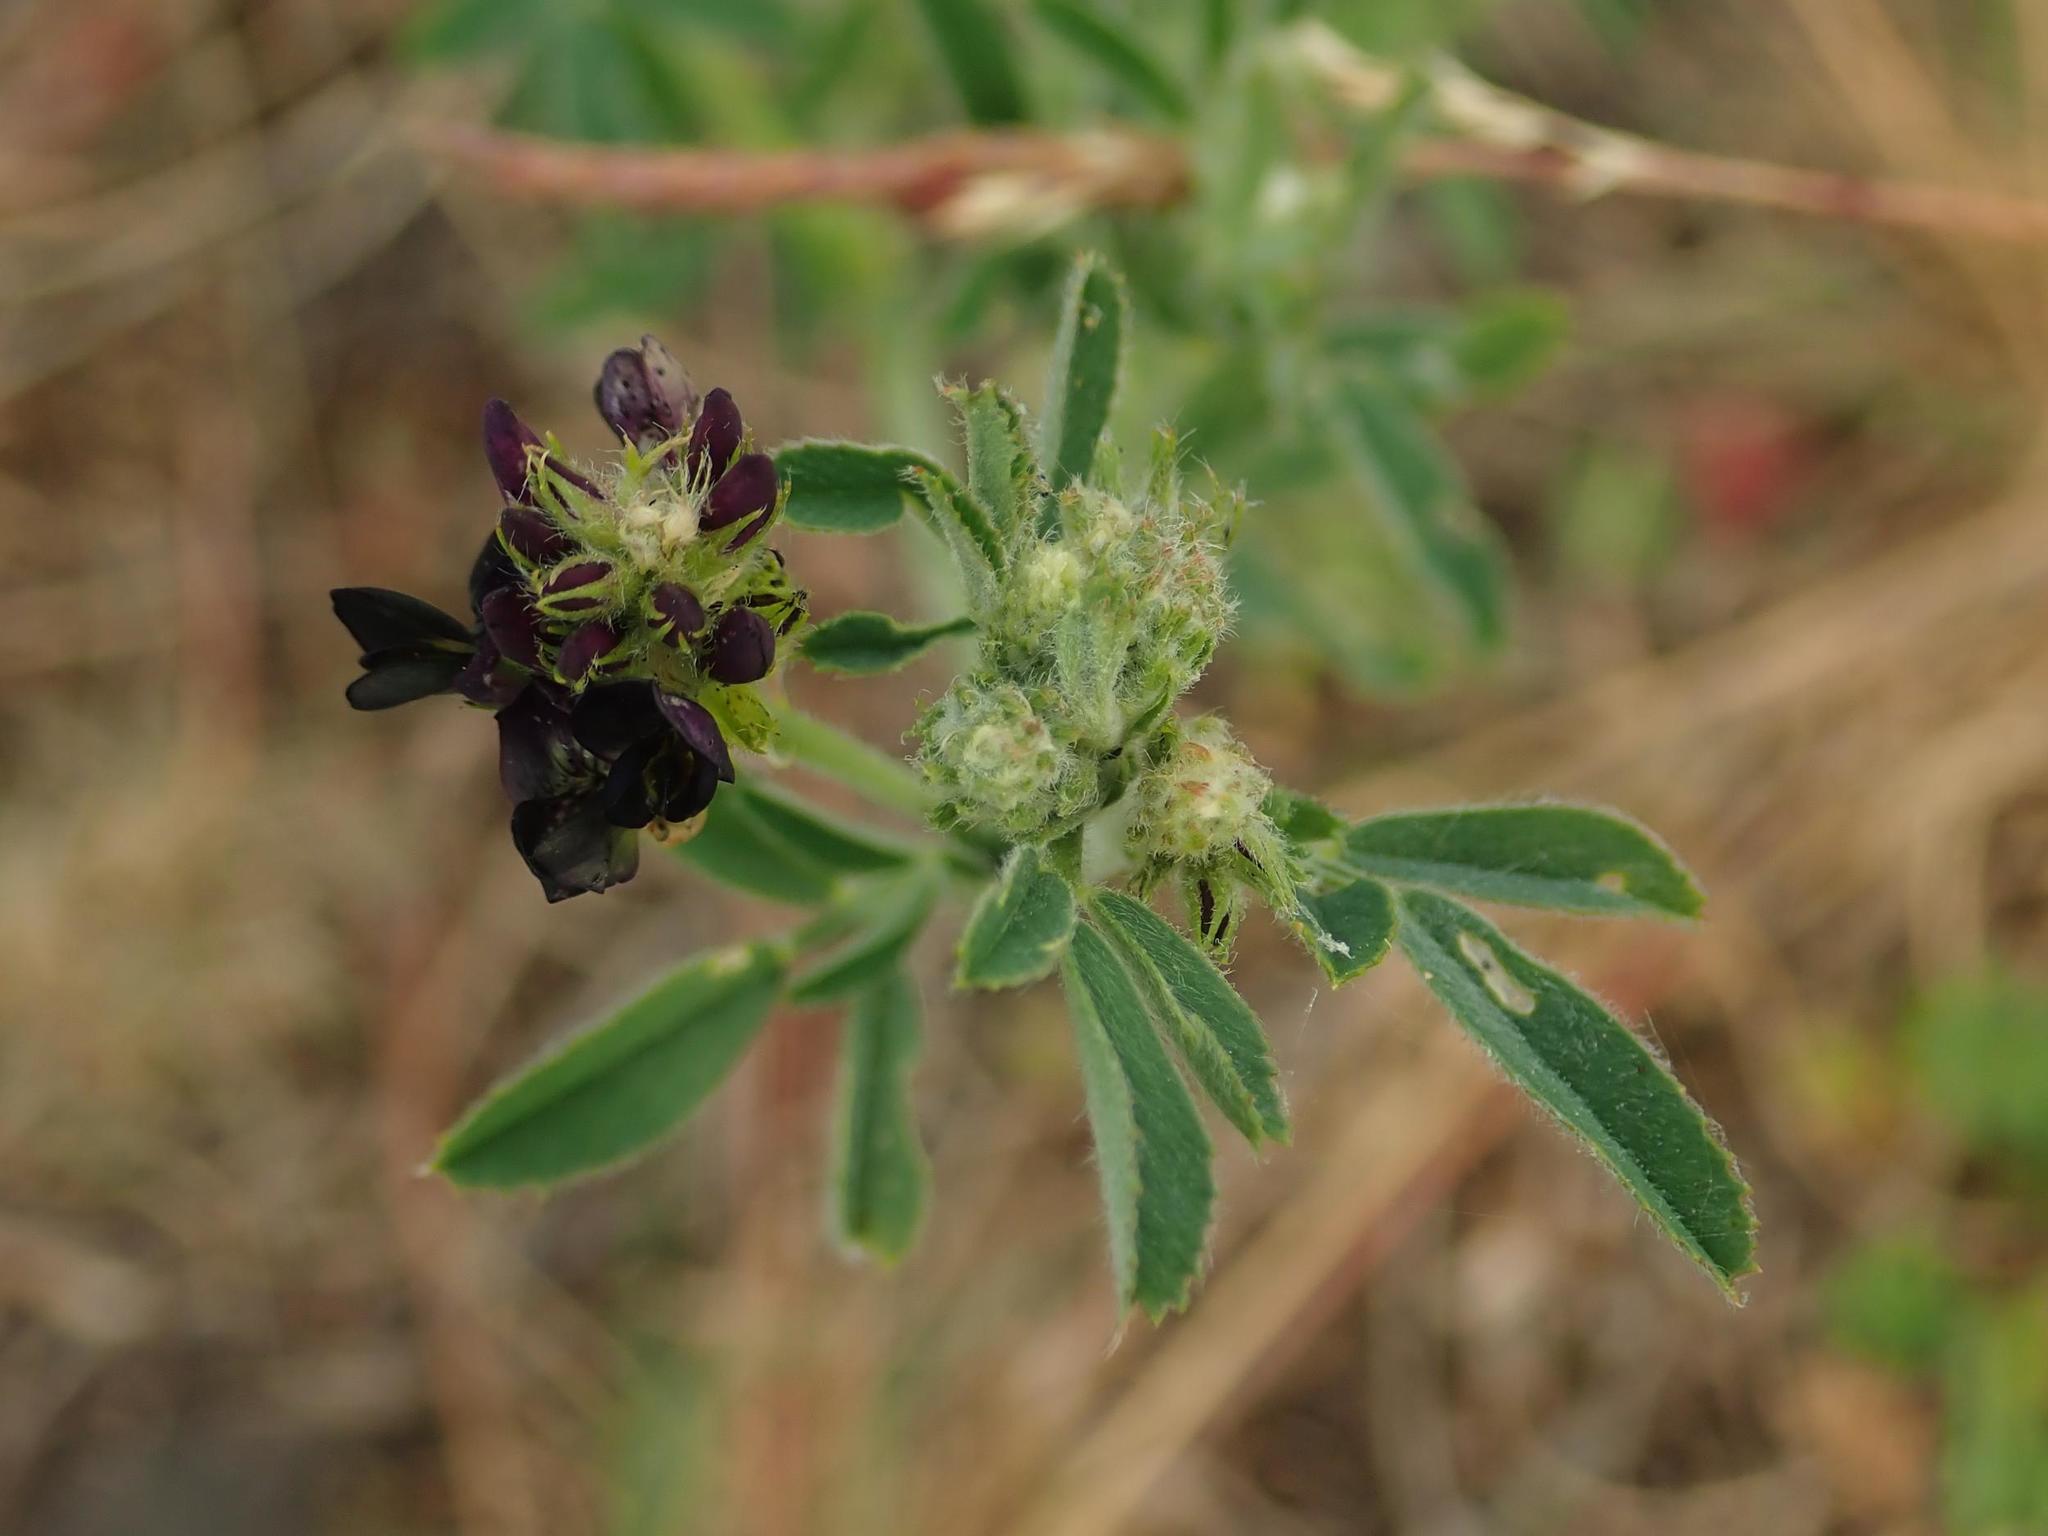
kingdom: Plantae
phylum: Tracheophyta
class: Magnoliopsida
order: Fabales
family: Fabaceae
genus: Medicago
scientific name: Medicago varia
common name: Sand lucerne
